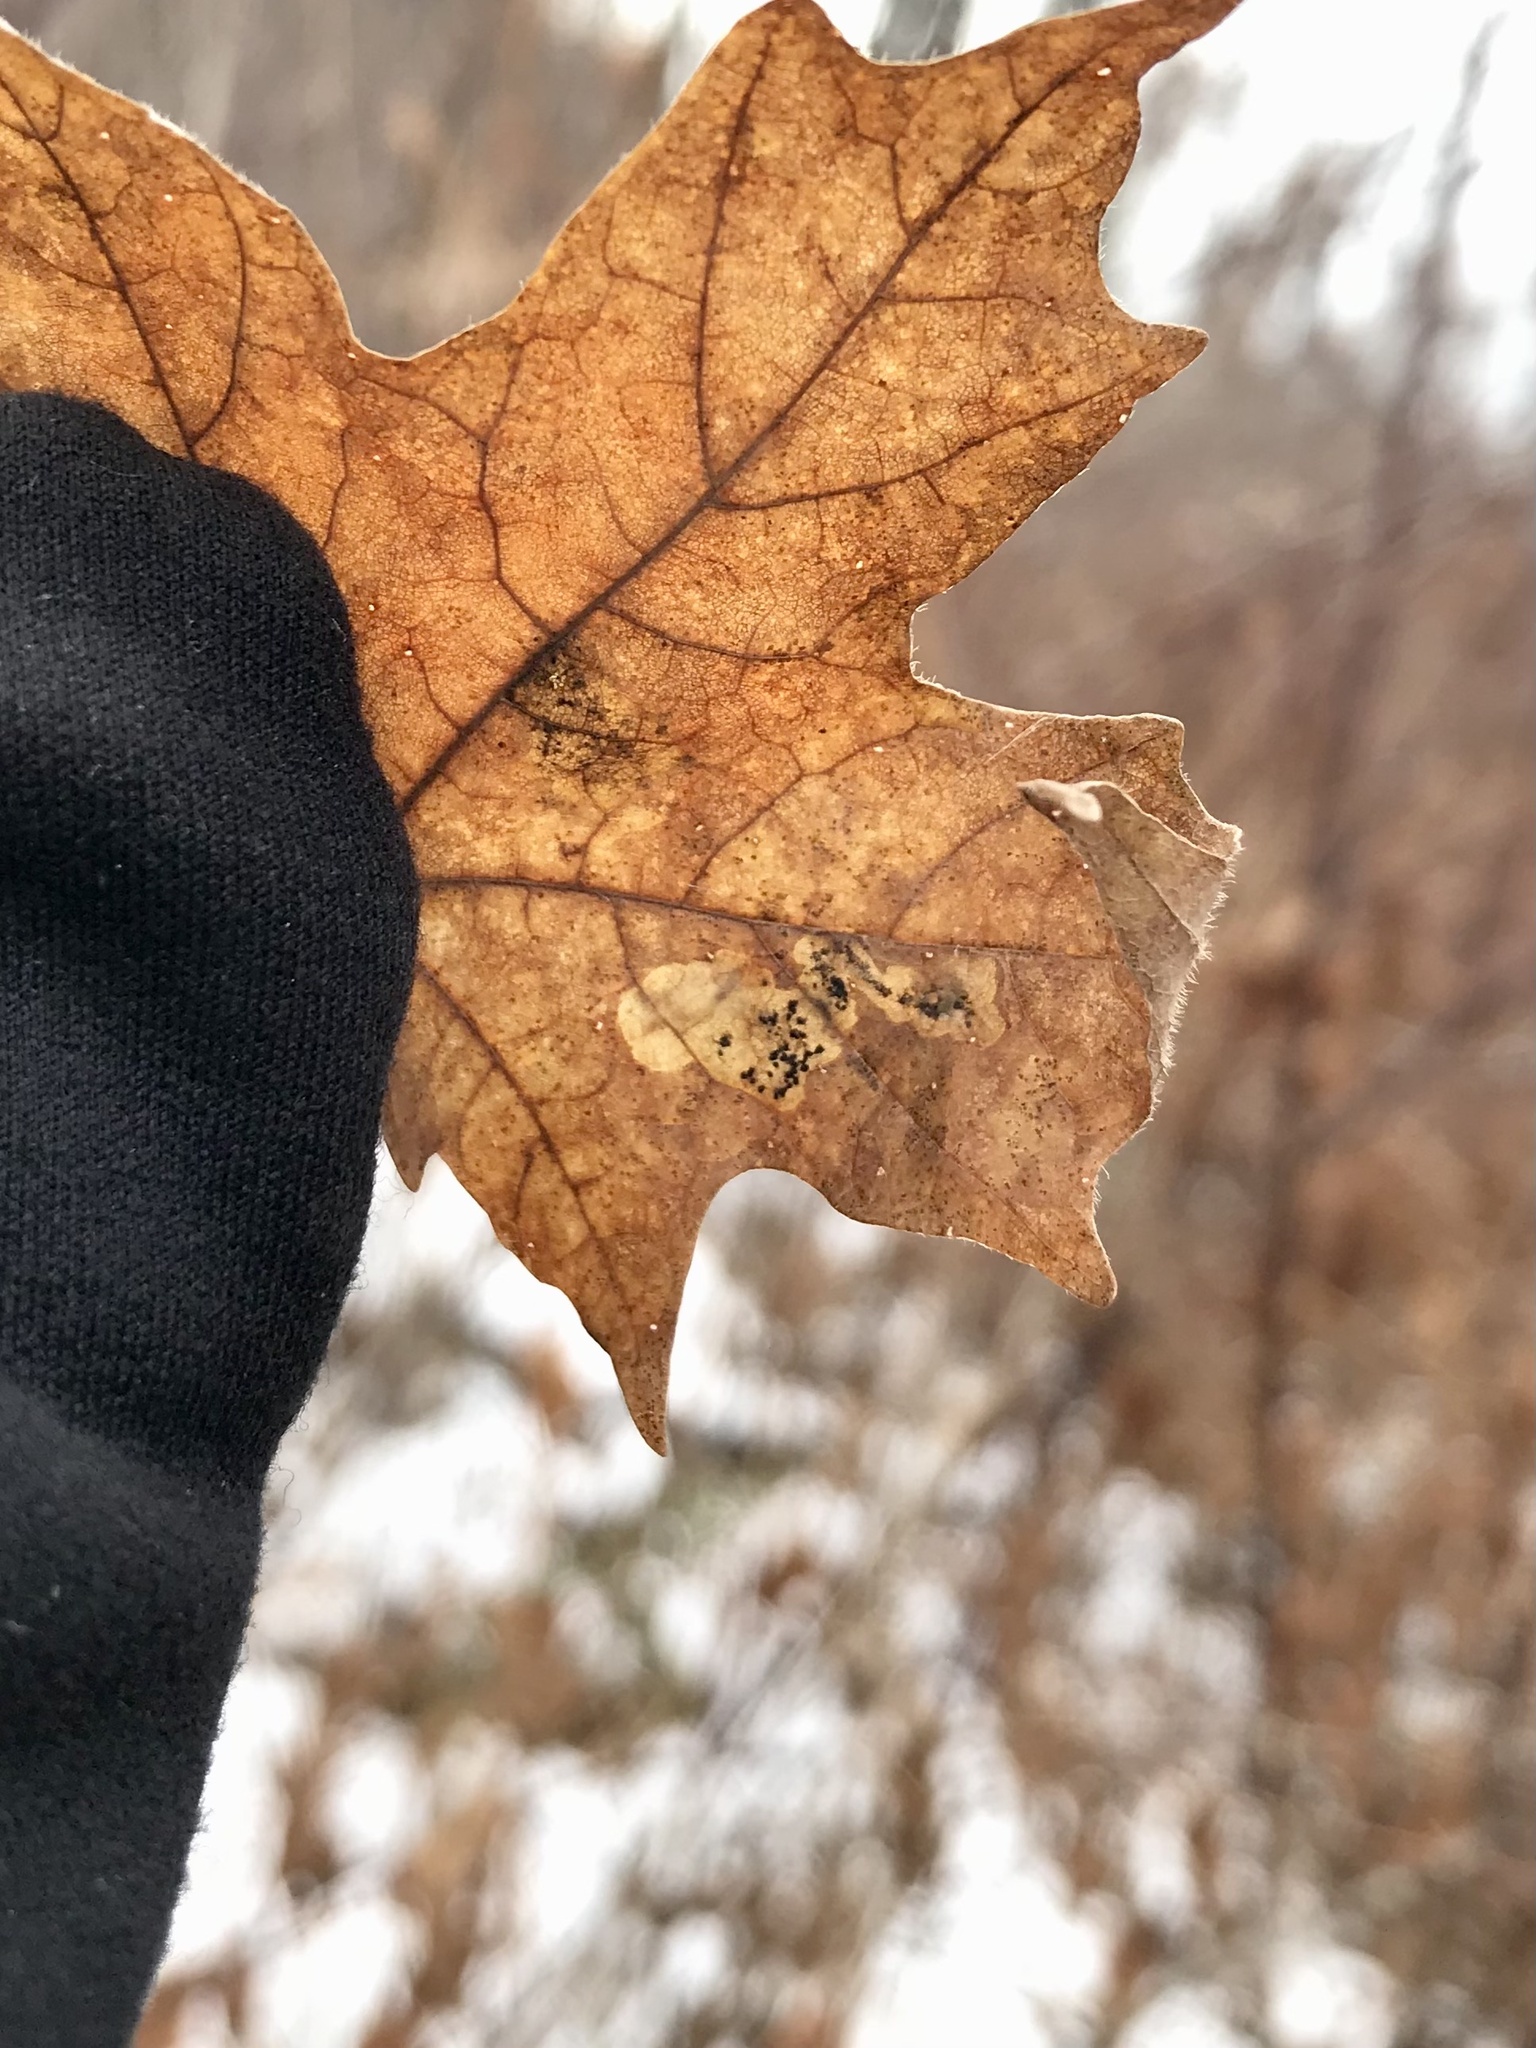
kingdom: Animalia
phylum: Arthropoda
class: Insecta
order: Lepidoptera
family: Gracillariidae
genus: Cameraria
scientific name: Cameraria
